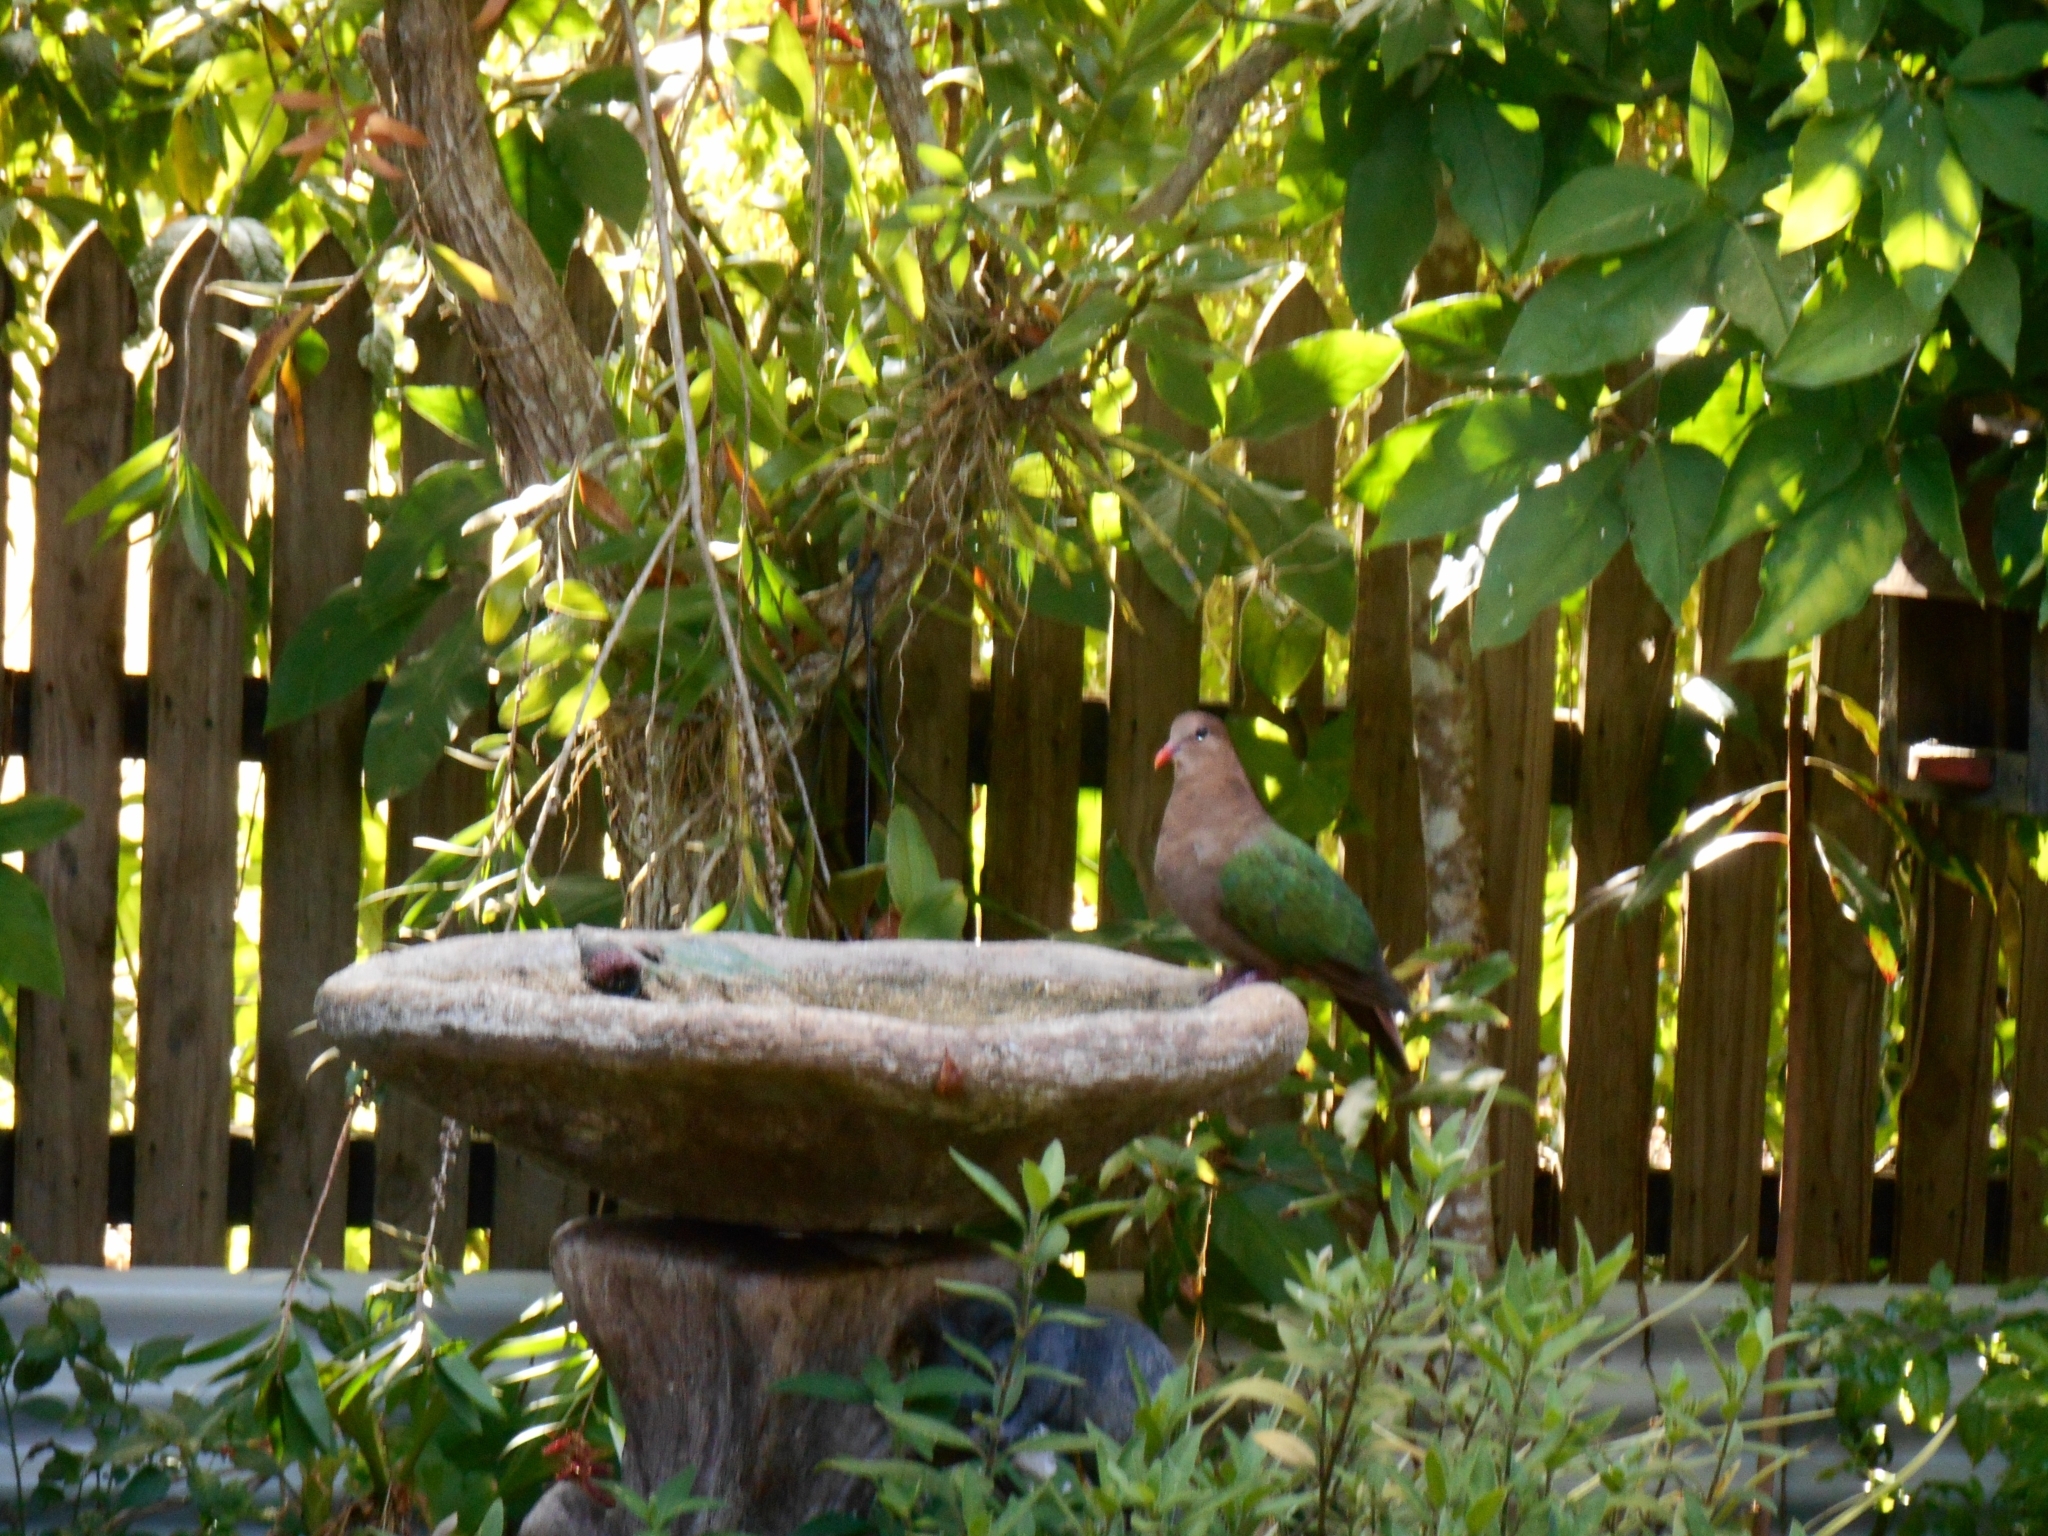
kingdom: Animalia
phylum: Chordata
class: Aves
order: Columbiformes
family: Columbidae
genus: Chalcophaps
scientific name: Chalcophaps longirostris
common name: Pacific emerald dove
